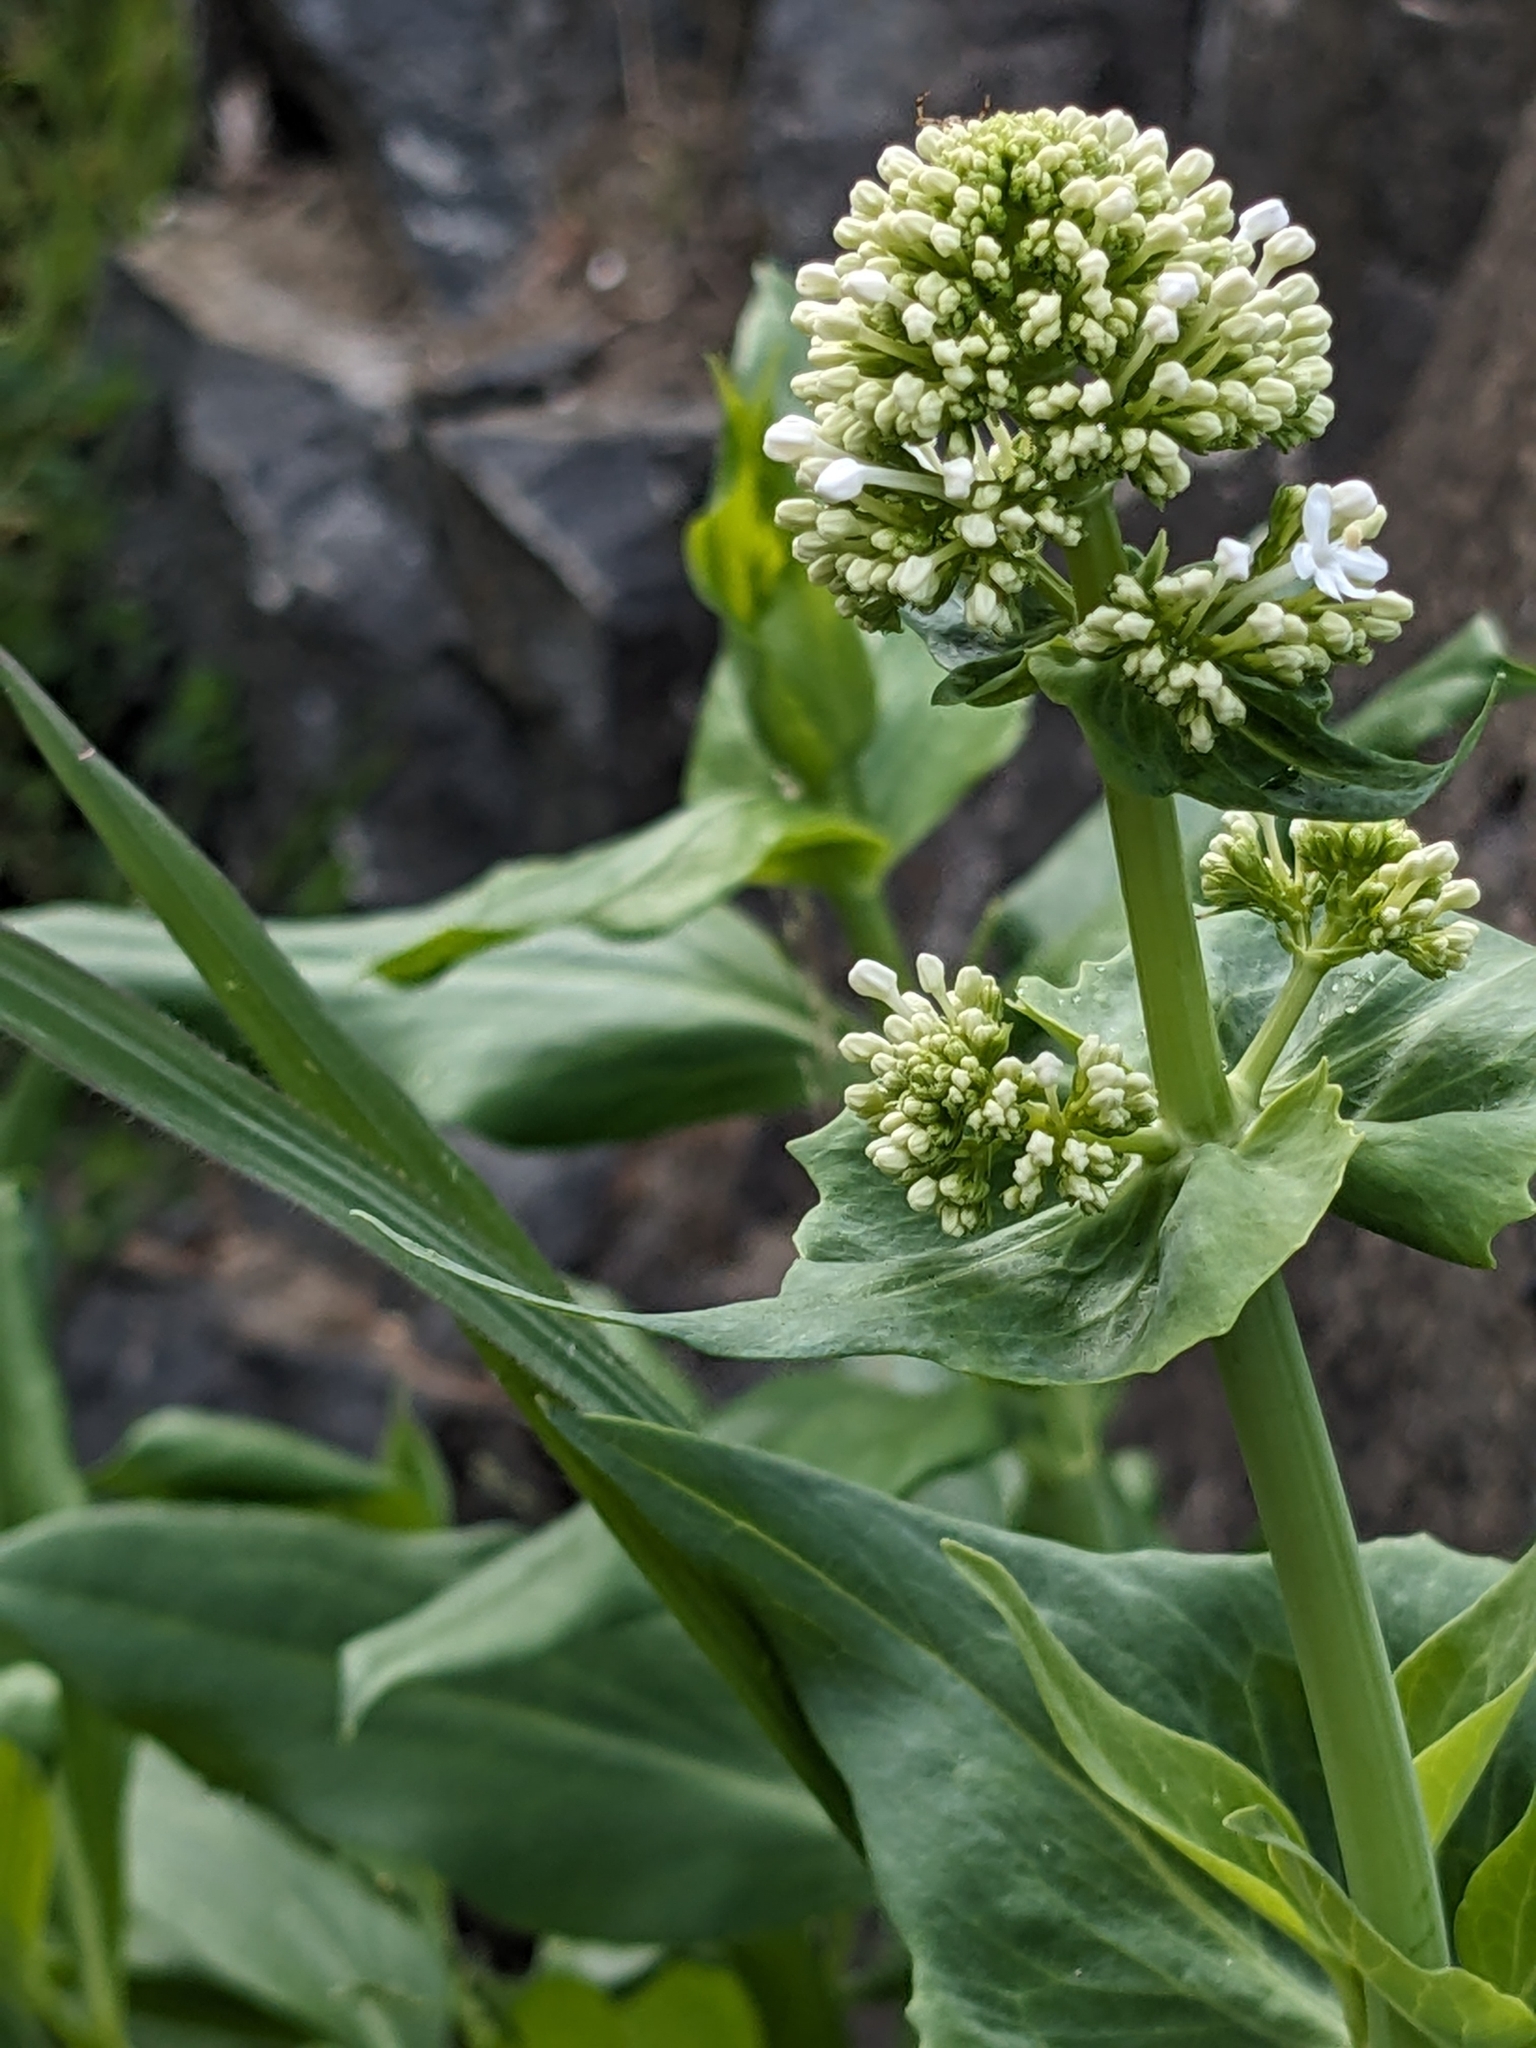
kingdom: Plantae
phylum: Tracheophyta
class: Magnoliopsida
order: Dipsacales
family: Caprifoliaceae
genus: Centranthus
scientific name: Centranthus ruber
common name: Red valerian
